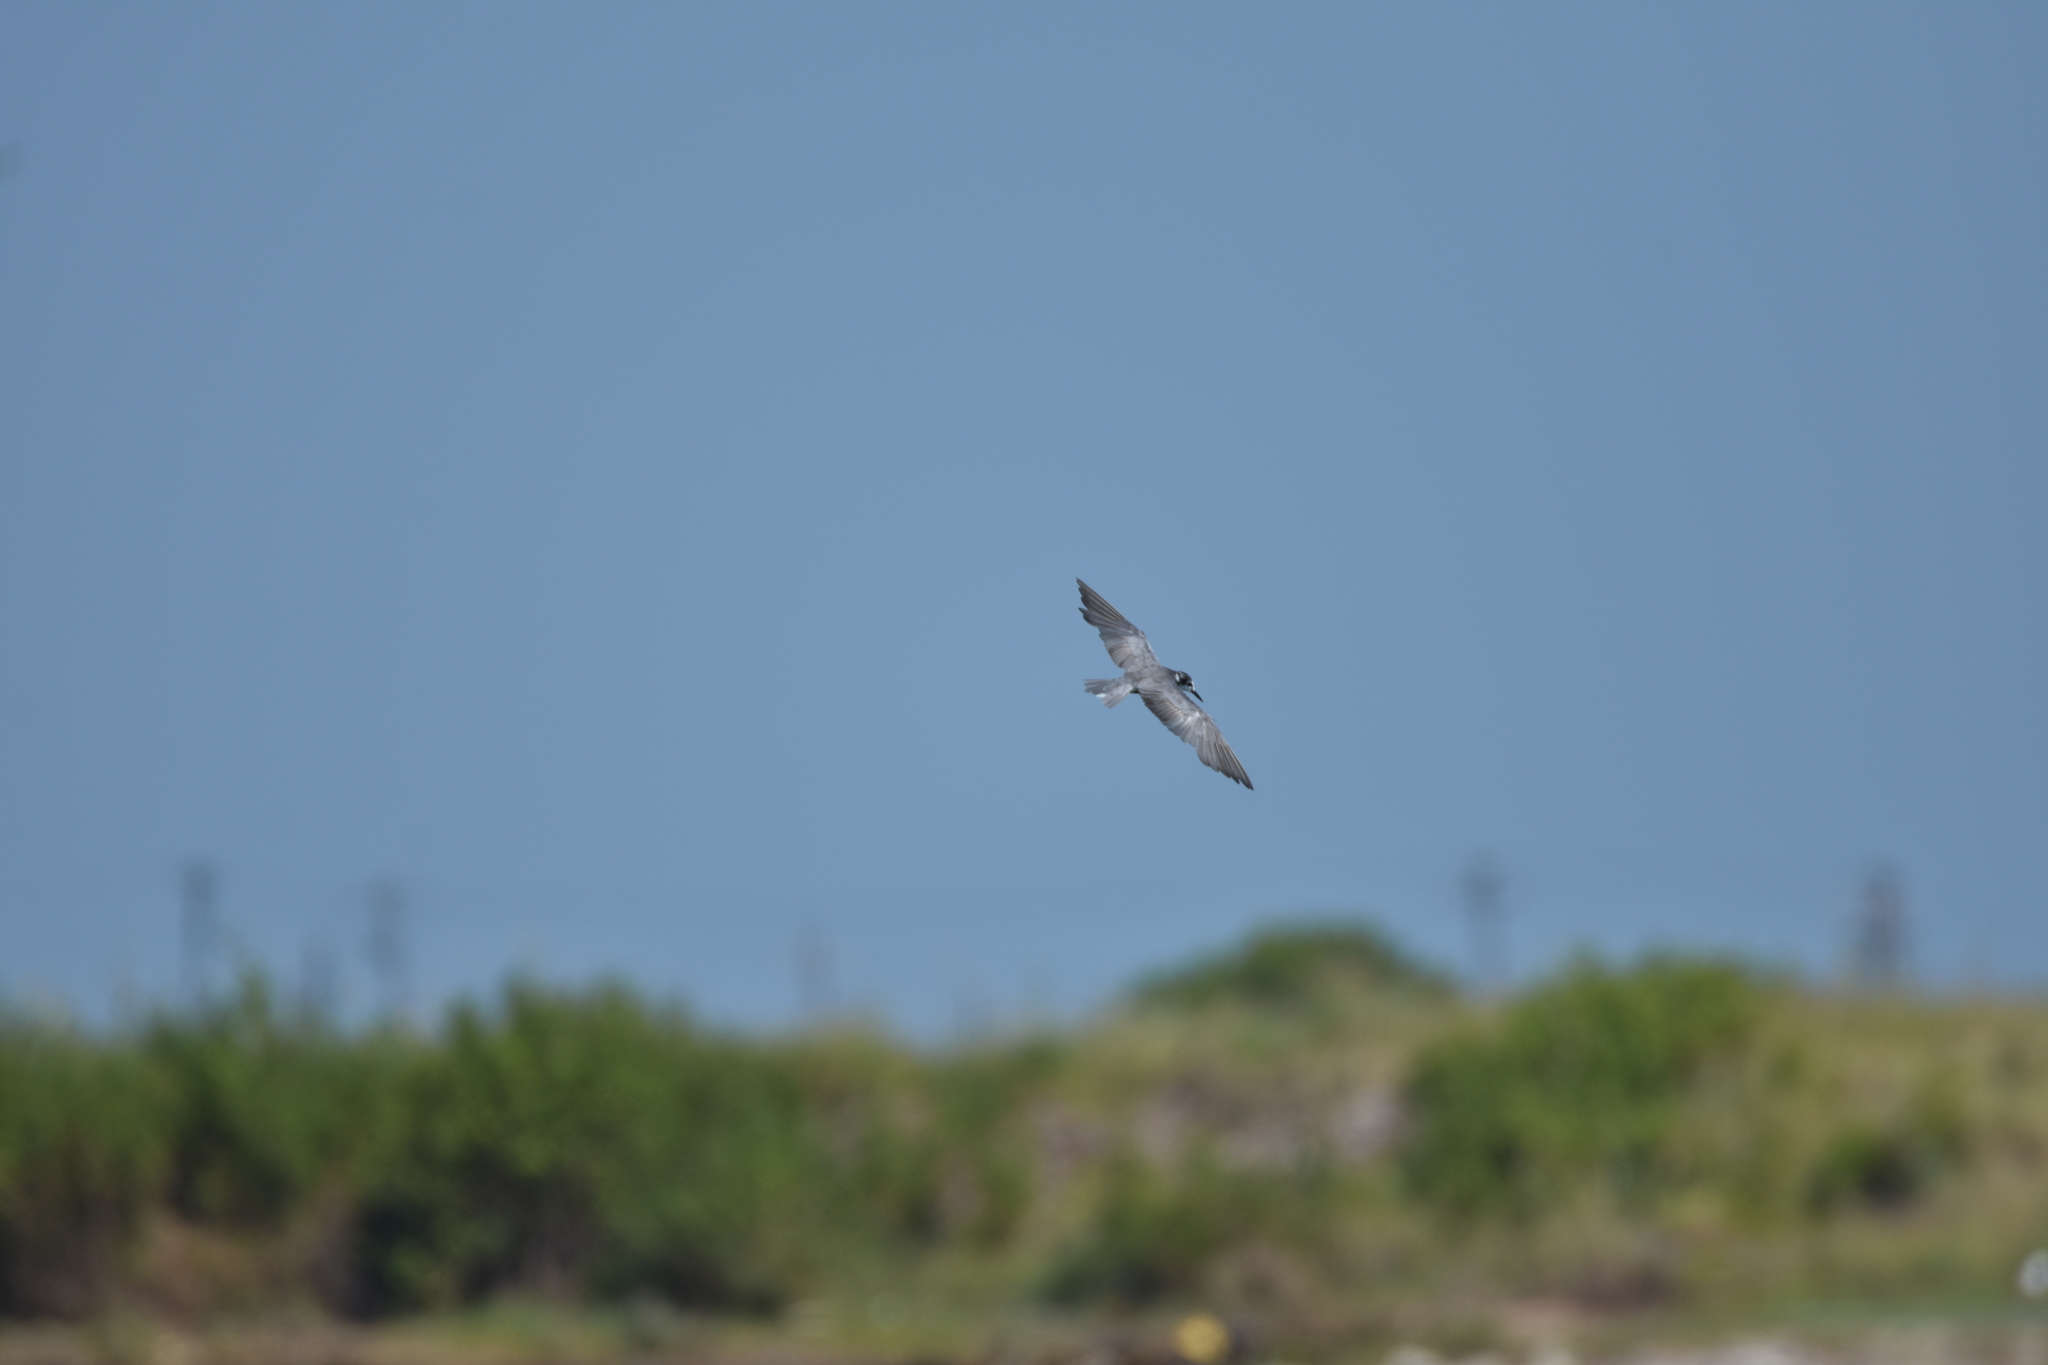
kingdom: Animalia
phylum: Chordata
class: Aves
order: Charadriiformes
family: Laridae
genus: Chlidonias
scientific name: Chlidonias niger
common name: Black tern
